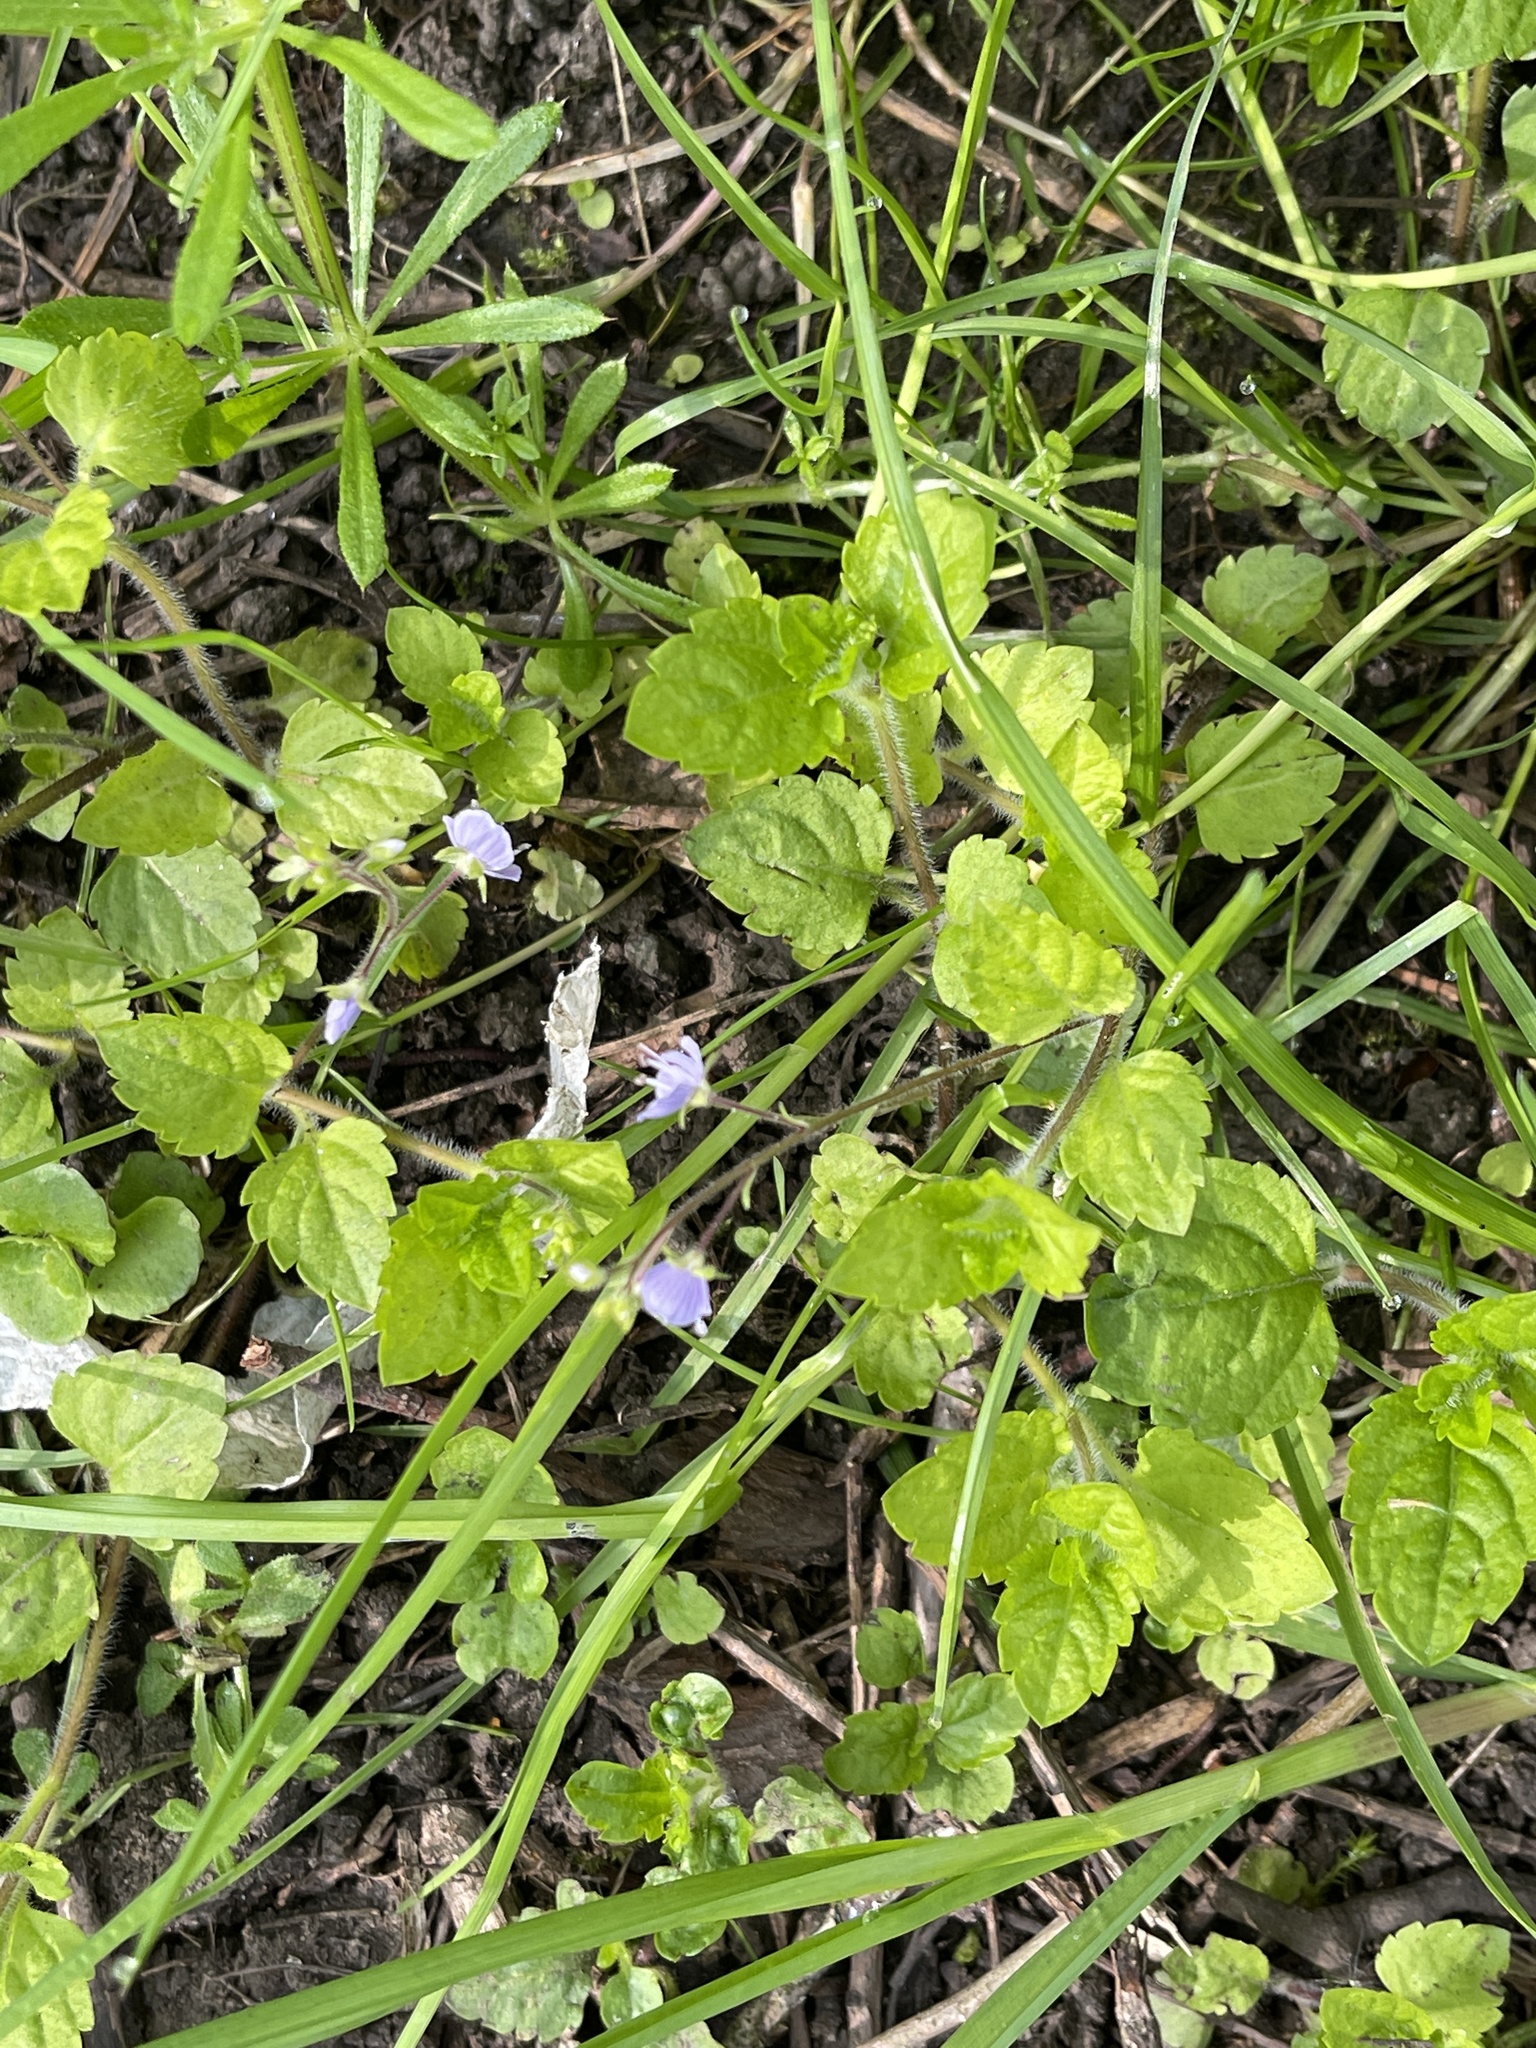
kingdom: Plantae
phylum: Tracheophyta
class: Magnoliopsida
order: Lamiales
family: Plantaginaceae
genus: Veronica
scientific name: Veronica montana
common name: Wood speedwell
